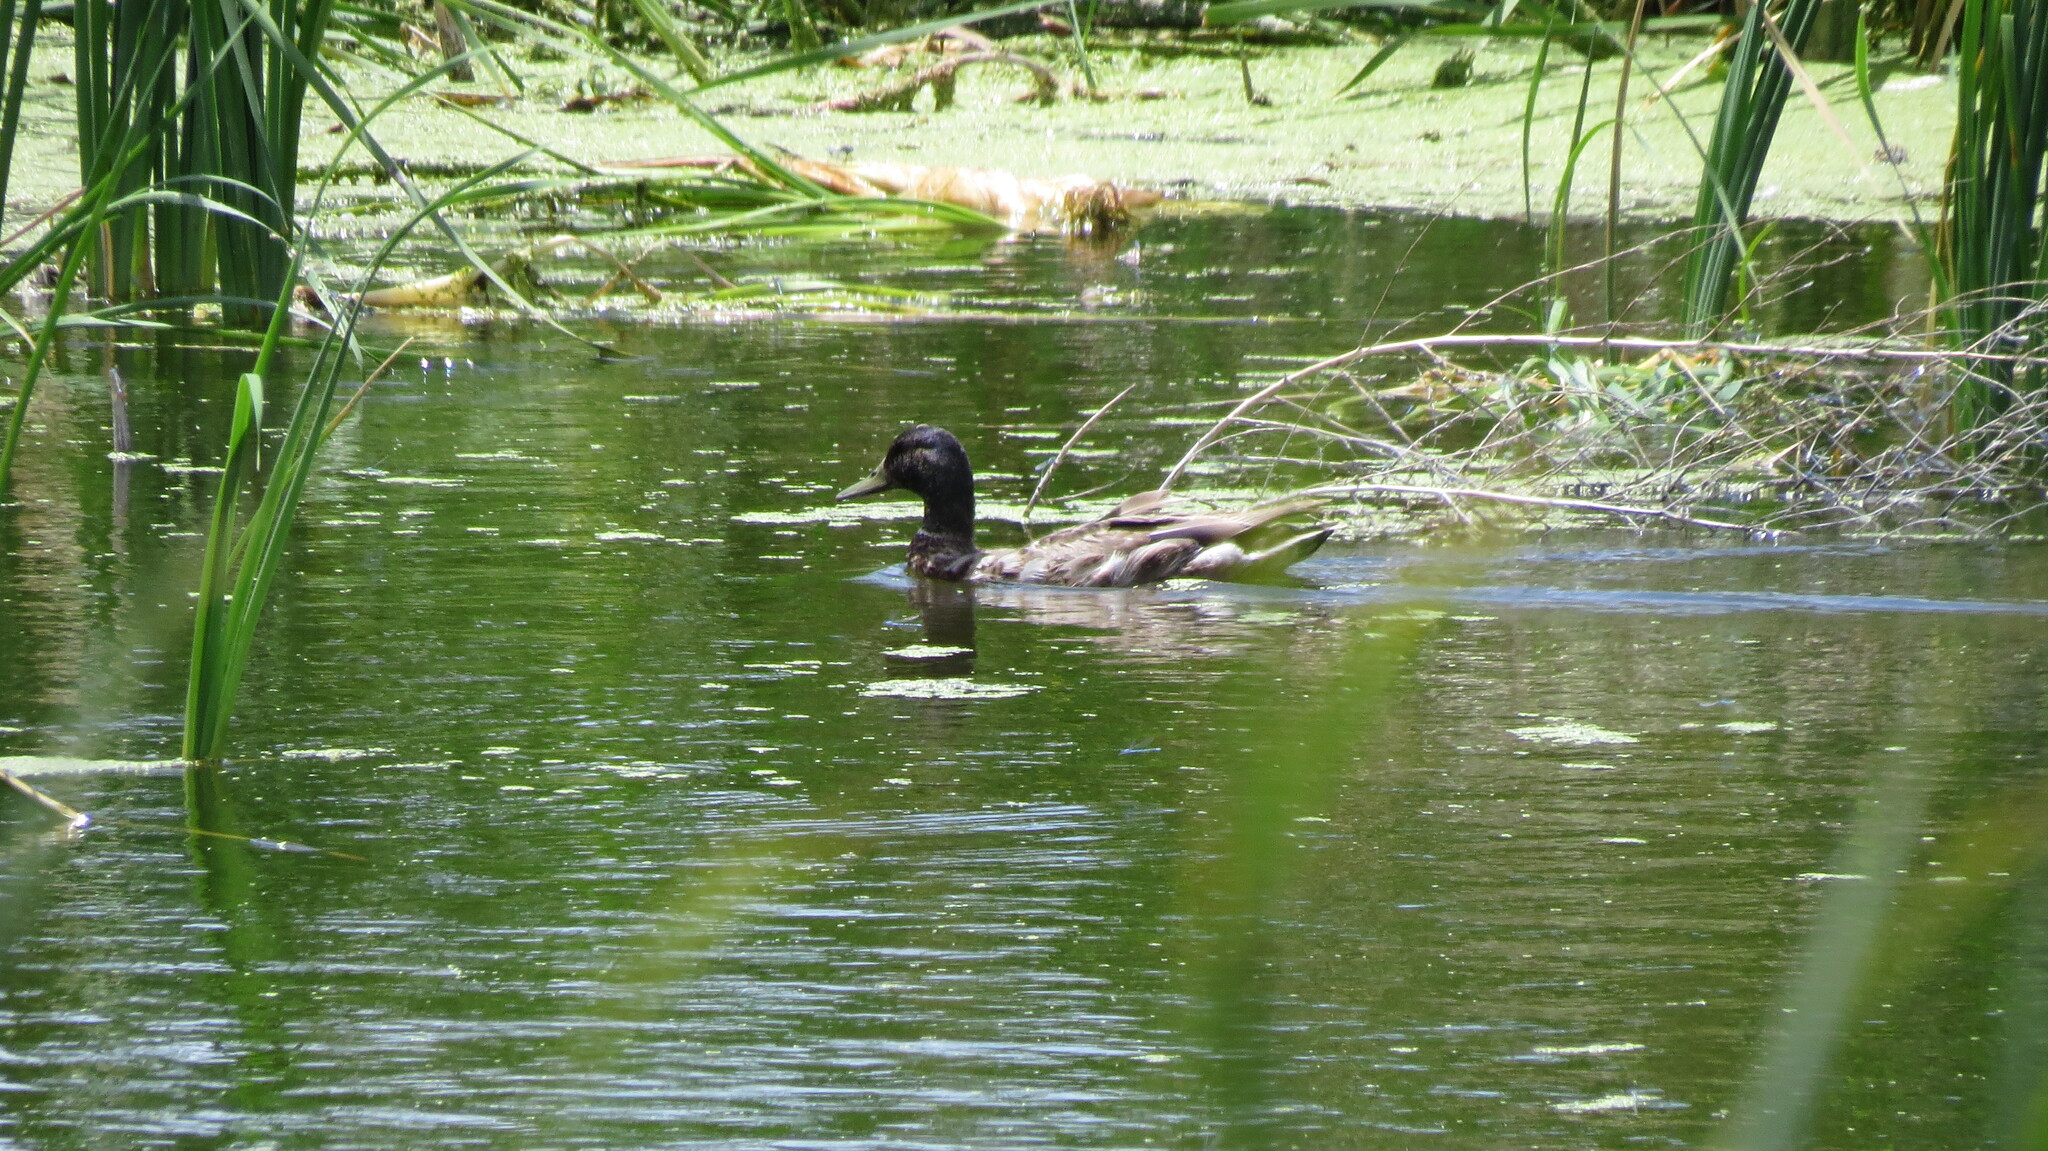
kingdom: Animalia
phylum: Chordata
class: Aves
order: Anseriformes
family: Anatidae
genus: Anas
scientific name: Anas platyrhynchos
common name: Mallard
